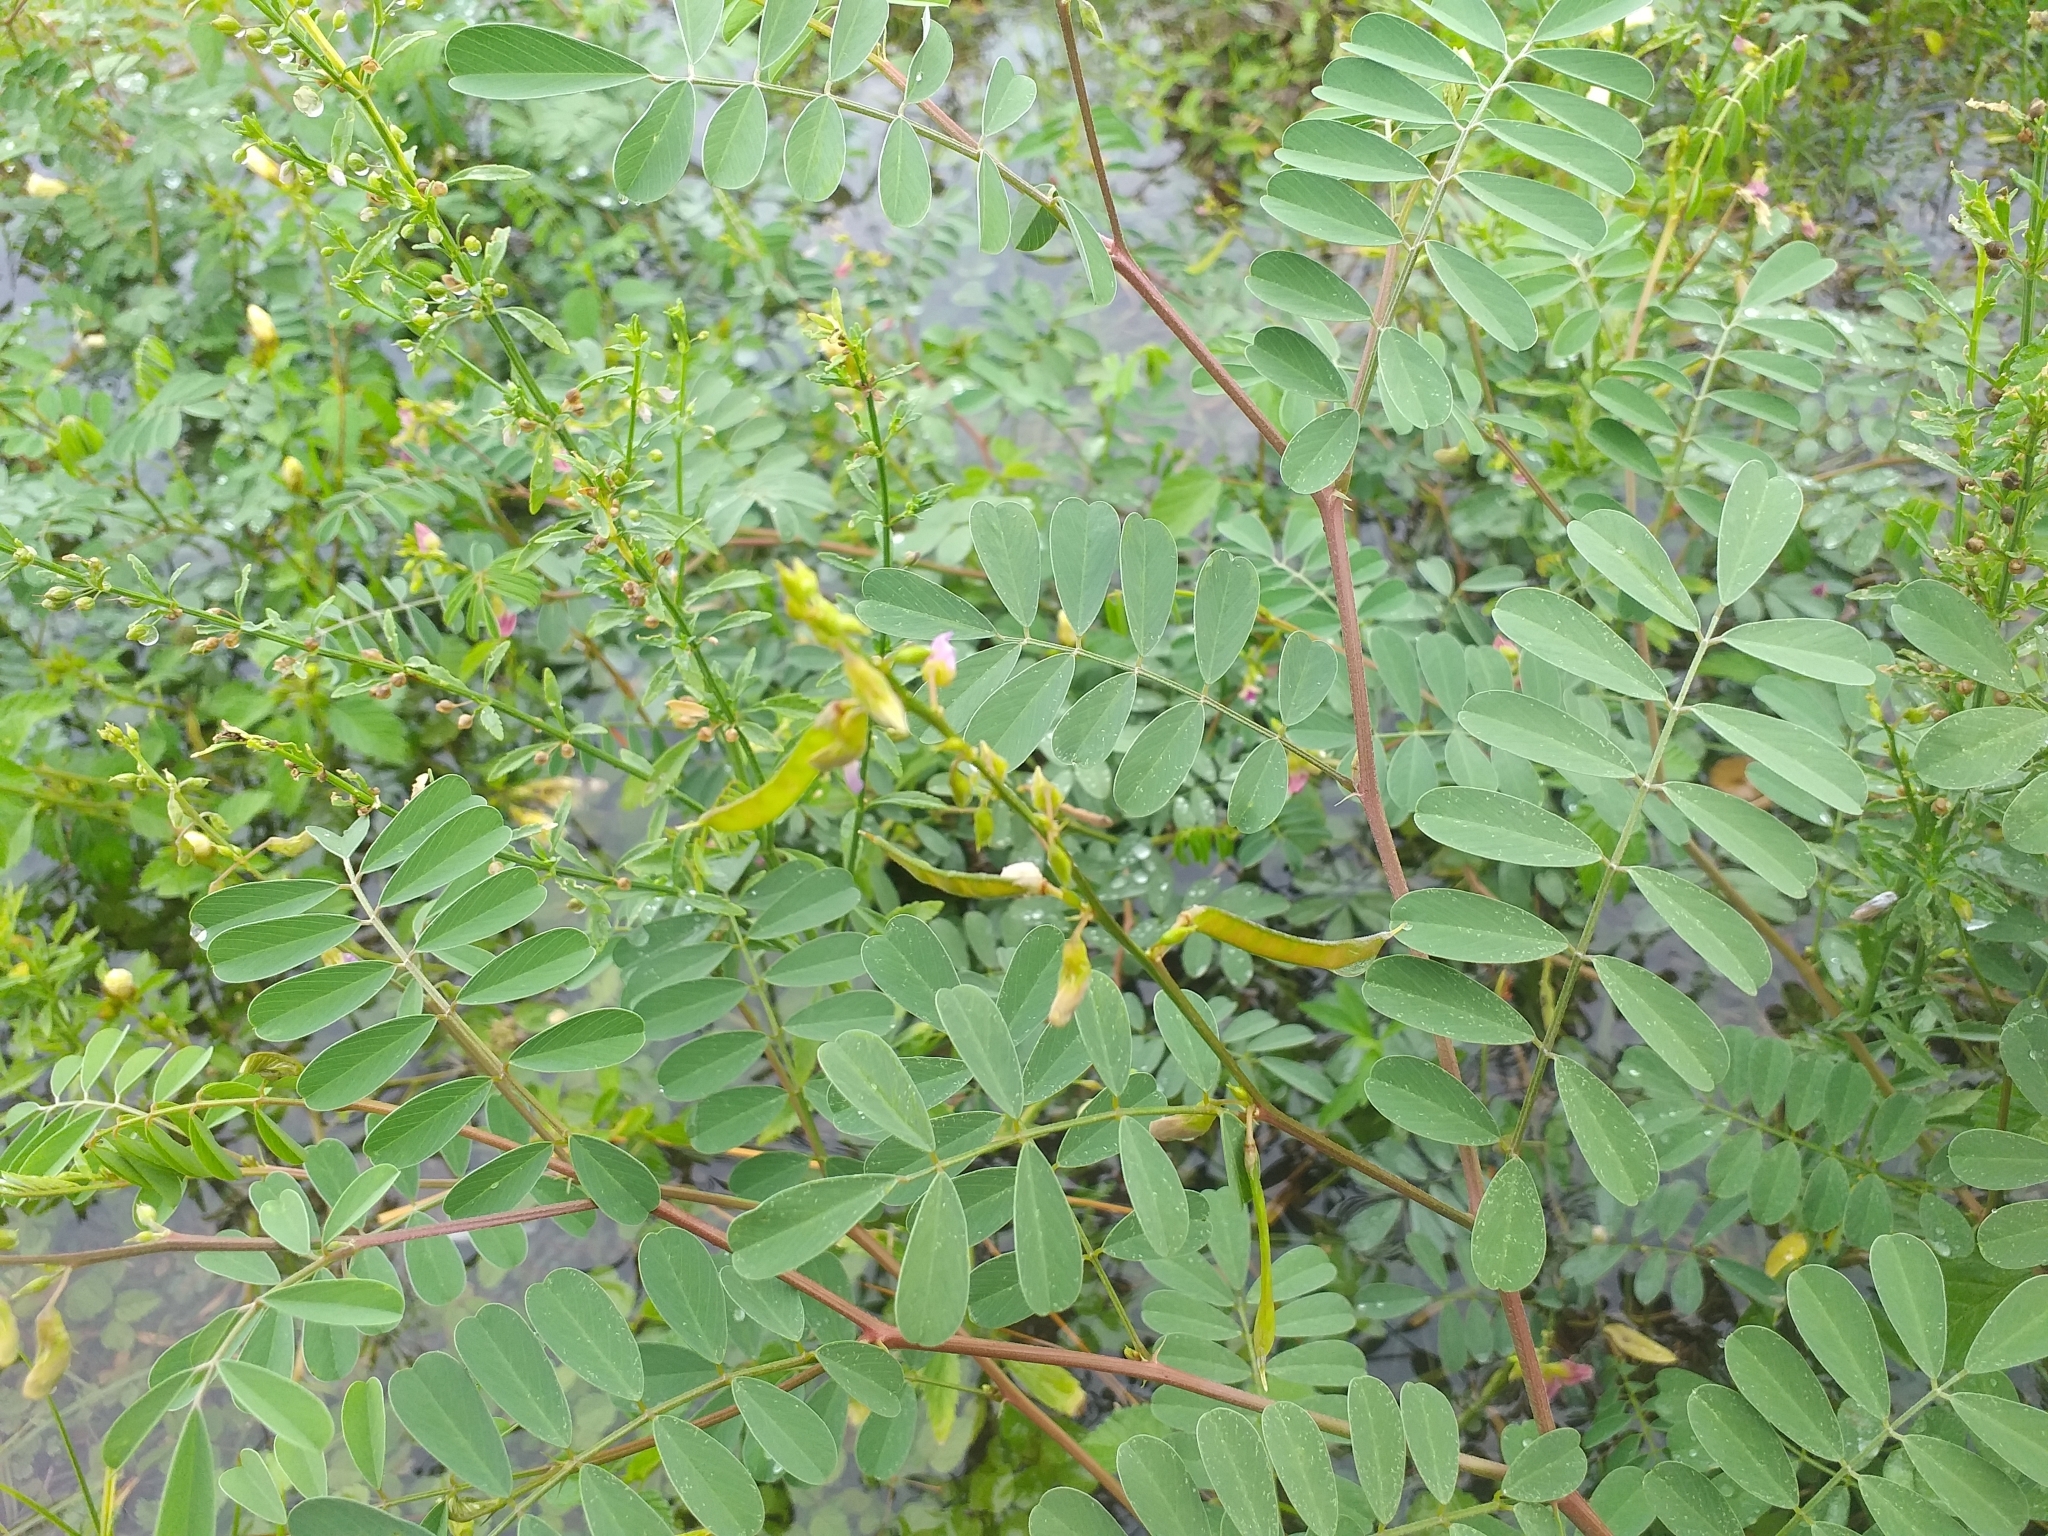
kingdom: Plantae
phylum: Tracheophyta
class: Magnoliopsida
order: Fabales
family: Fabaceae
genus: Tephrosia
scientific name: Tephrosia purpurea
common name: Fishpoison
